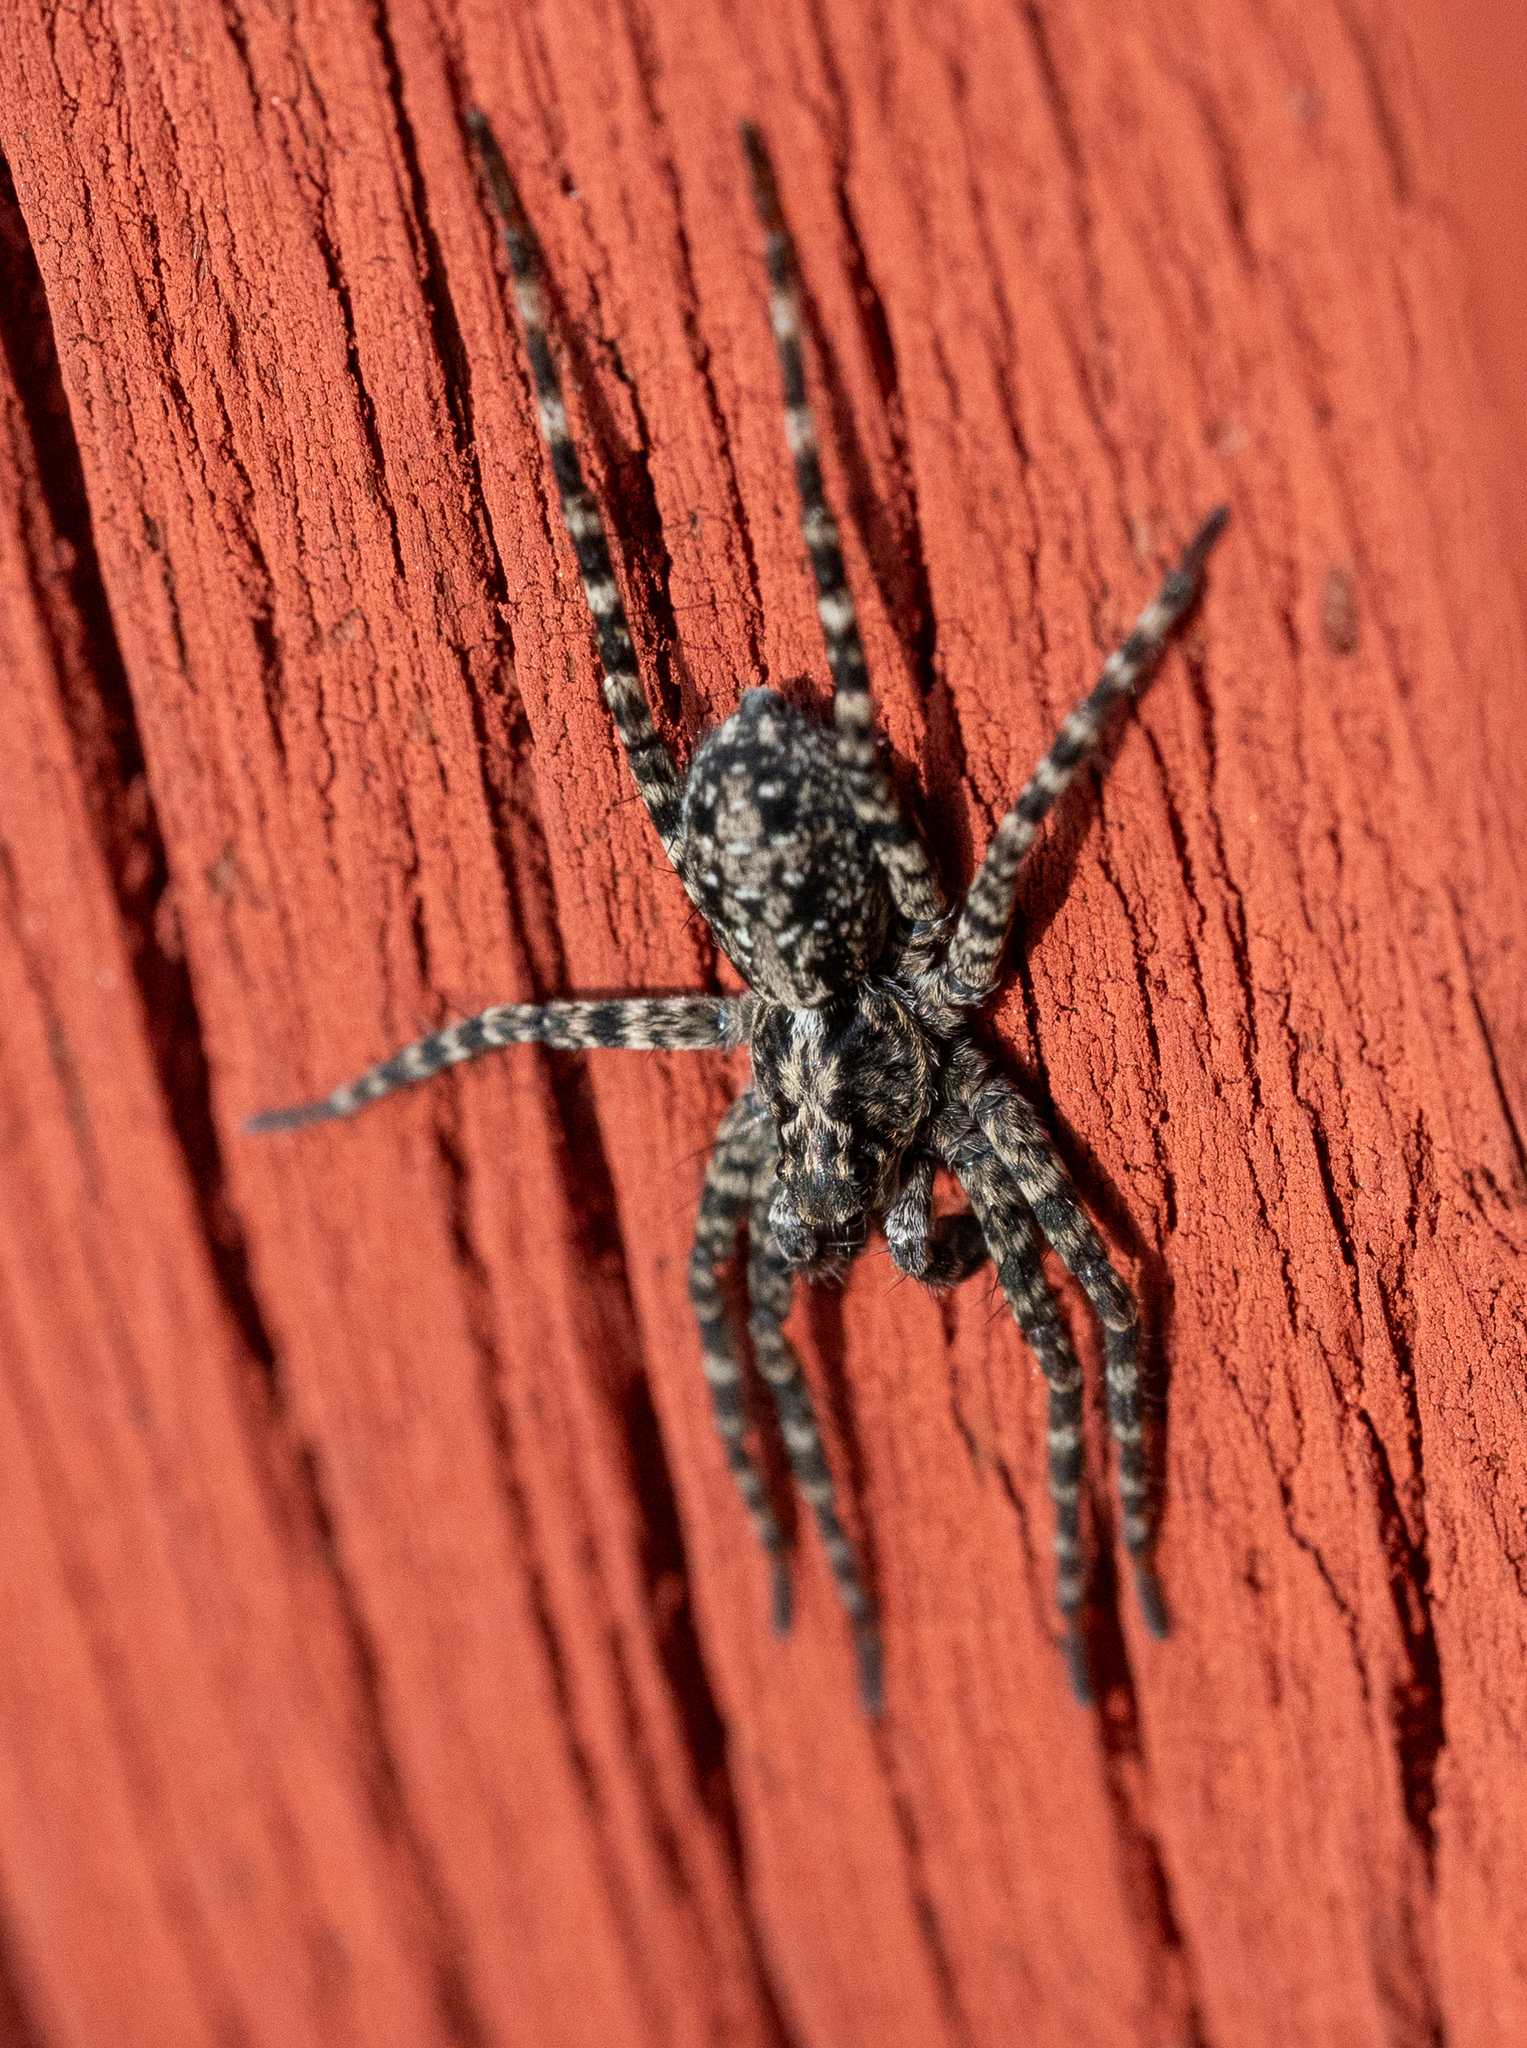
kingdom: Animalia
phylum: Arthropoda
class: Arachnida
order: Araneae
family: Lycosidae
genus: Acantholycosa
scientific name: Acantholycosa lignaria
